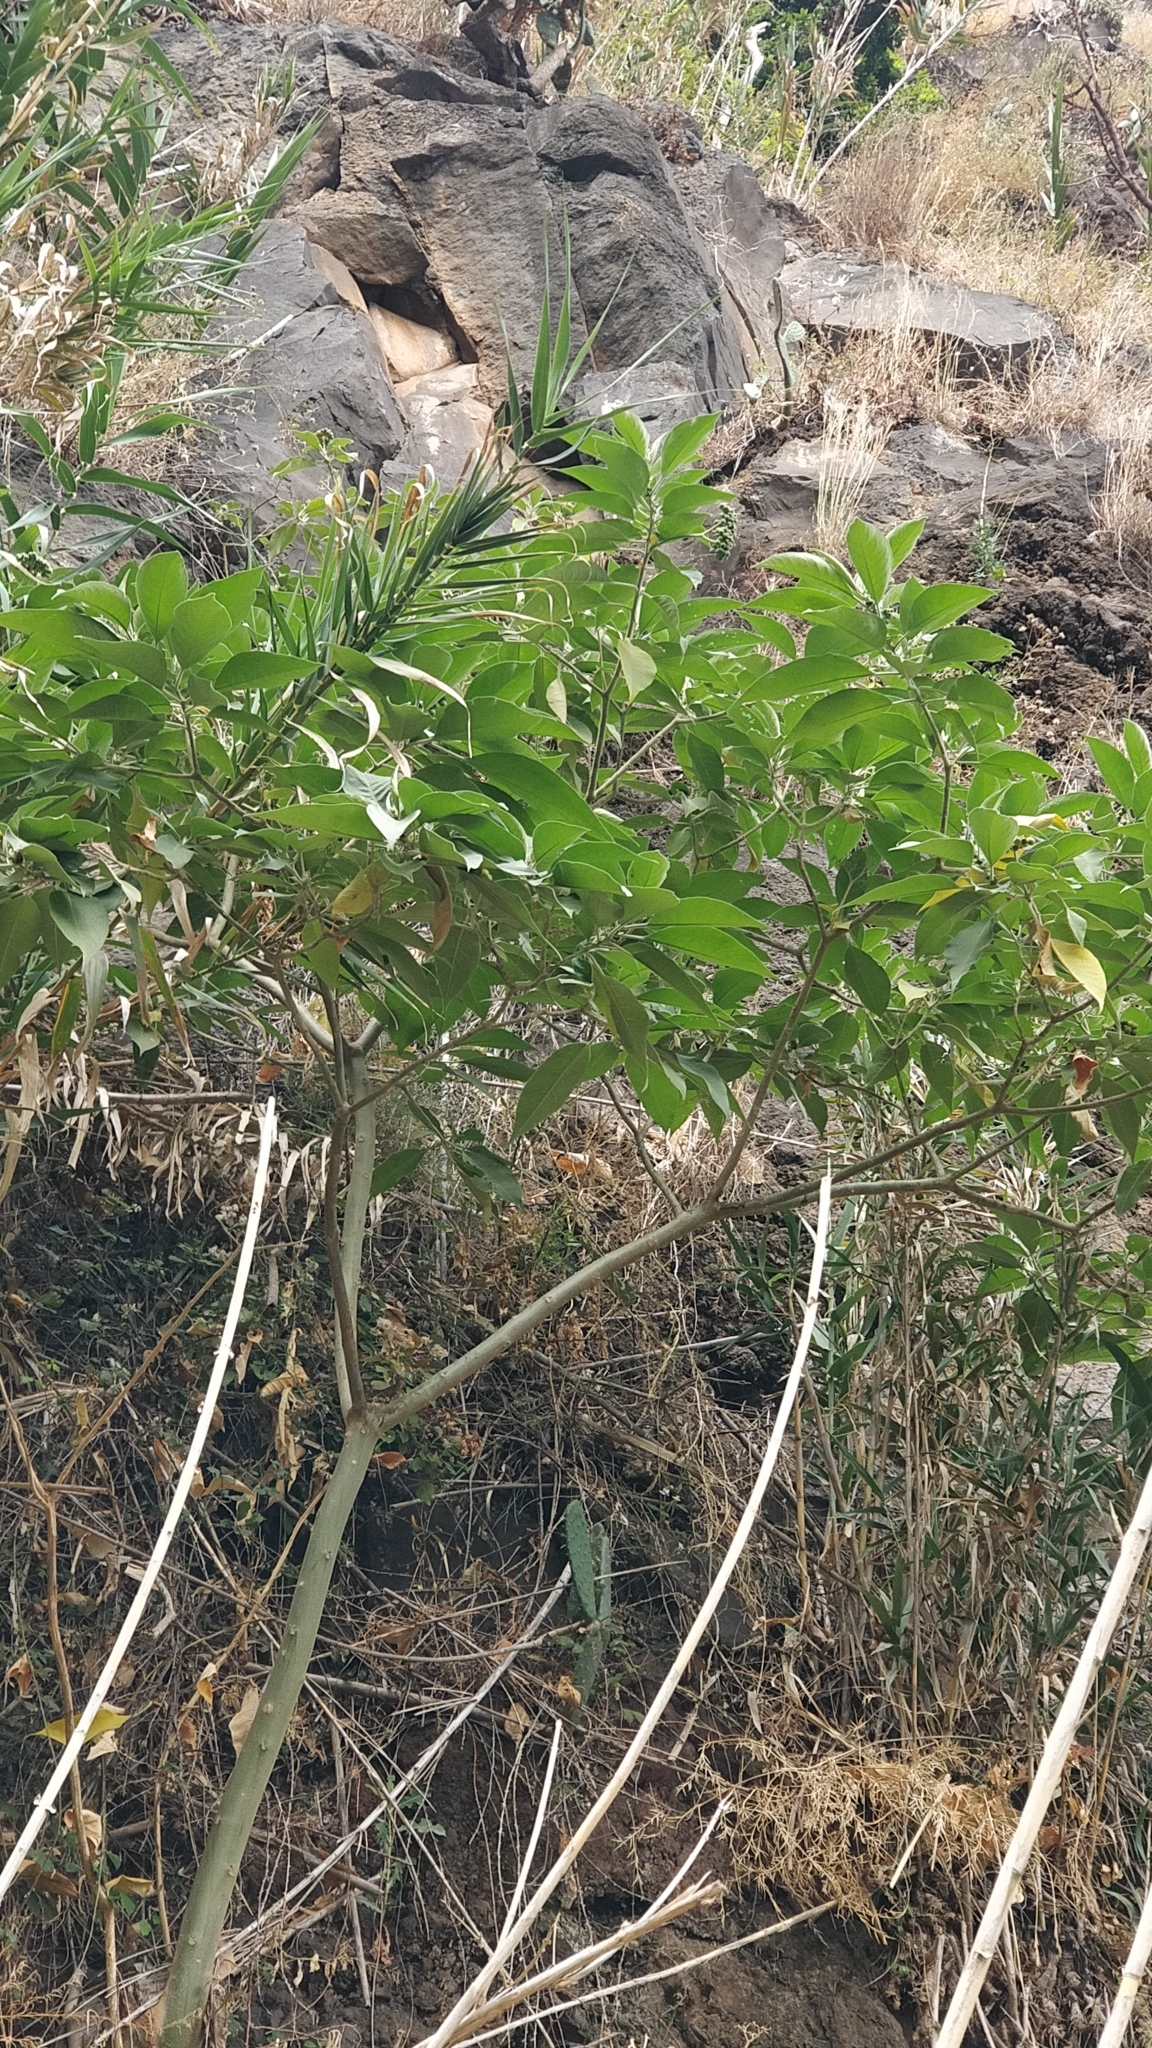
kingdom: Plantae
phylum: Tracheophyta
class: Magnoliopsida
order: Solanales
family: Solanaceae
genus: Solanum
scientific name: Solanum mauritianum
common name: Earleaf nightshade
